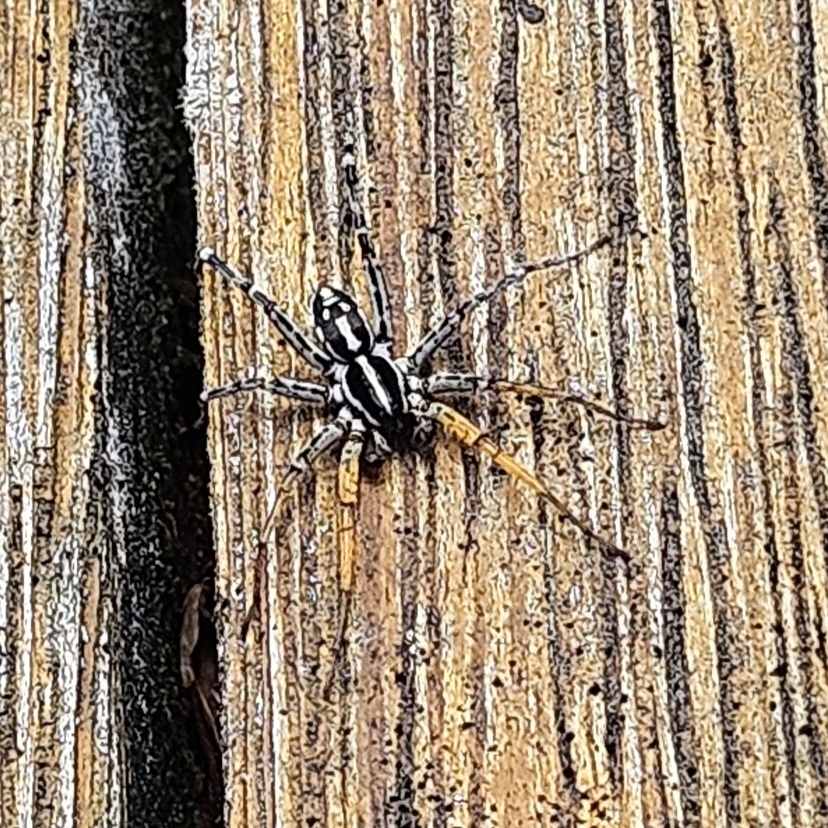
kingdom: Animalia
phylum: Arthropoda
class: Arachnida
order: Araneae
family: Corinnidae
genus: Nyssus
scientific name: Nyssus coloripes
